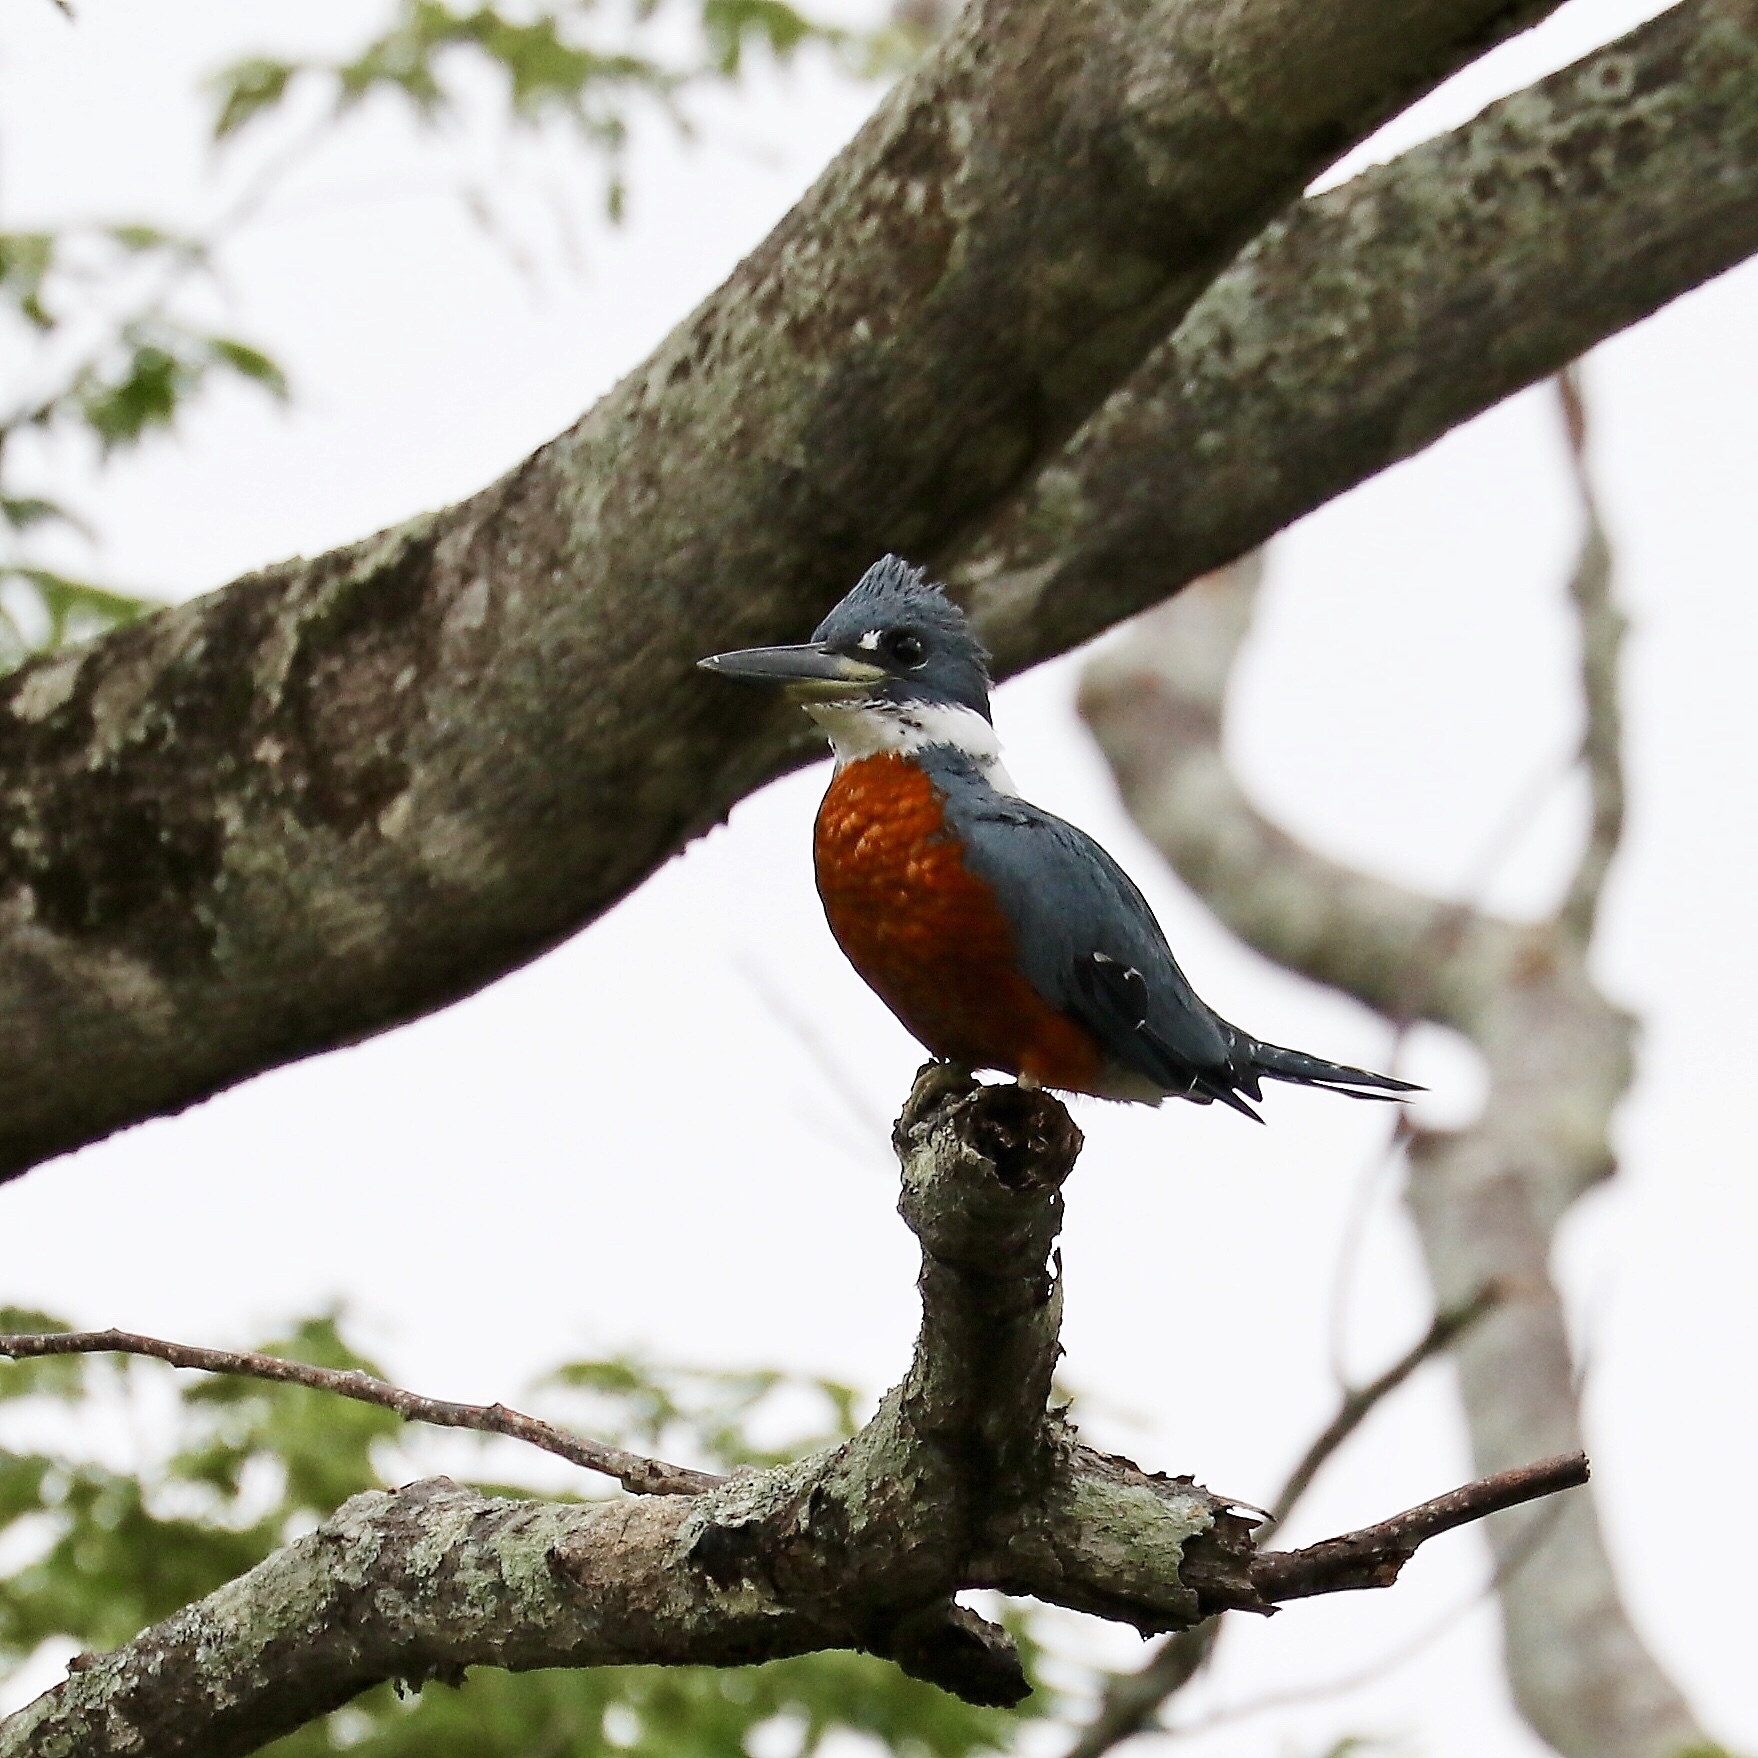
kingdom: Animalia
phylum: Chordata
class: Aves
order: Coraciiformes
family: Alcedinidae
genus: Megaceryle
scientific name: Megaceryle torquata
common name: Ringed kingfisher
